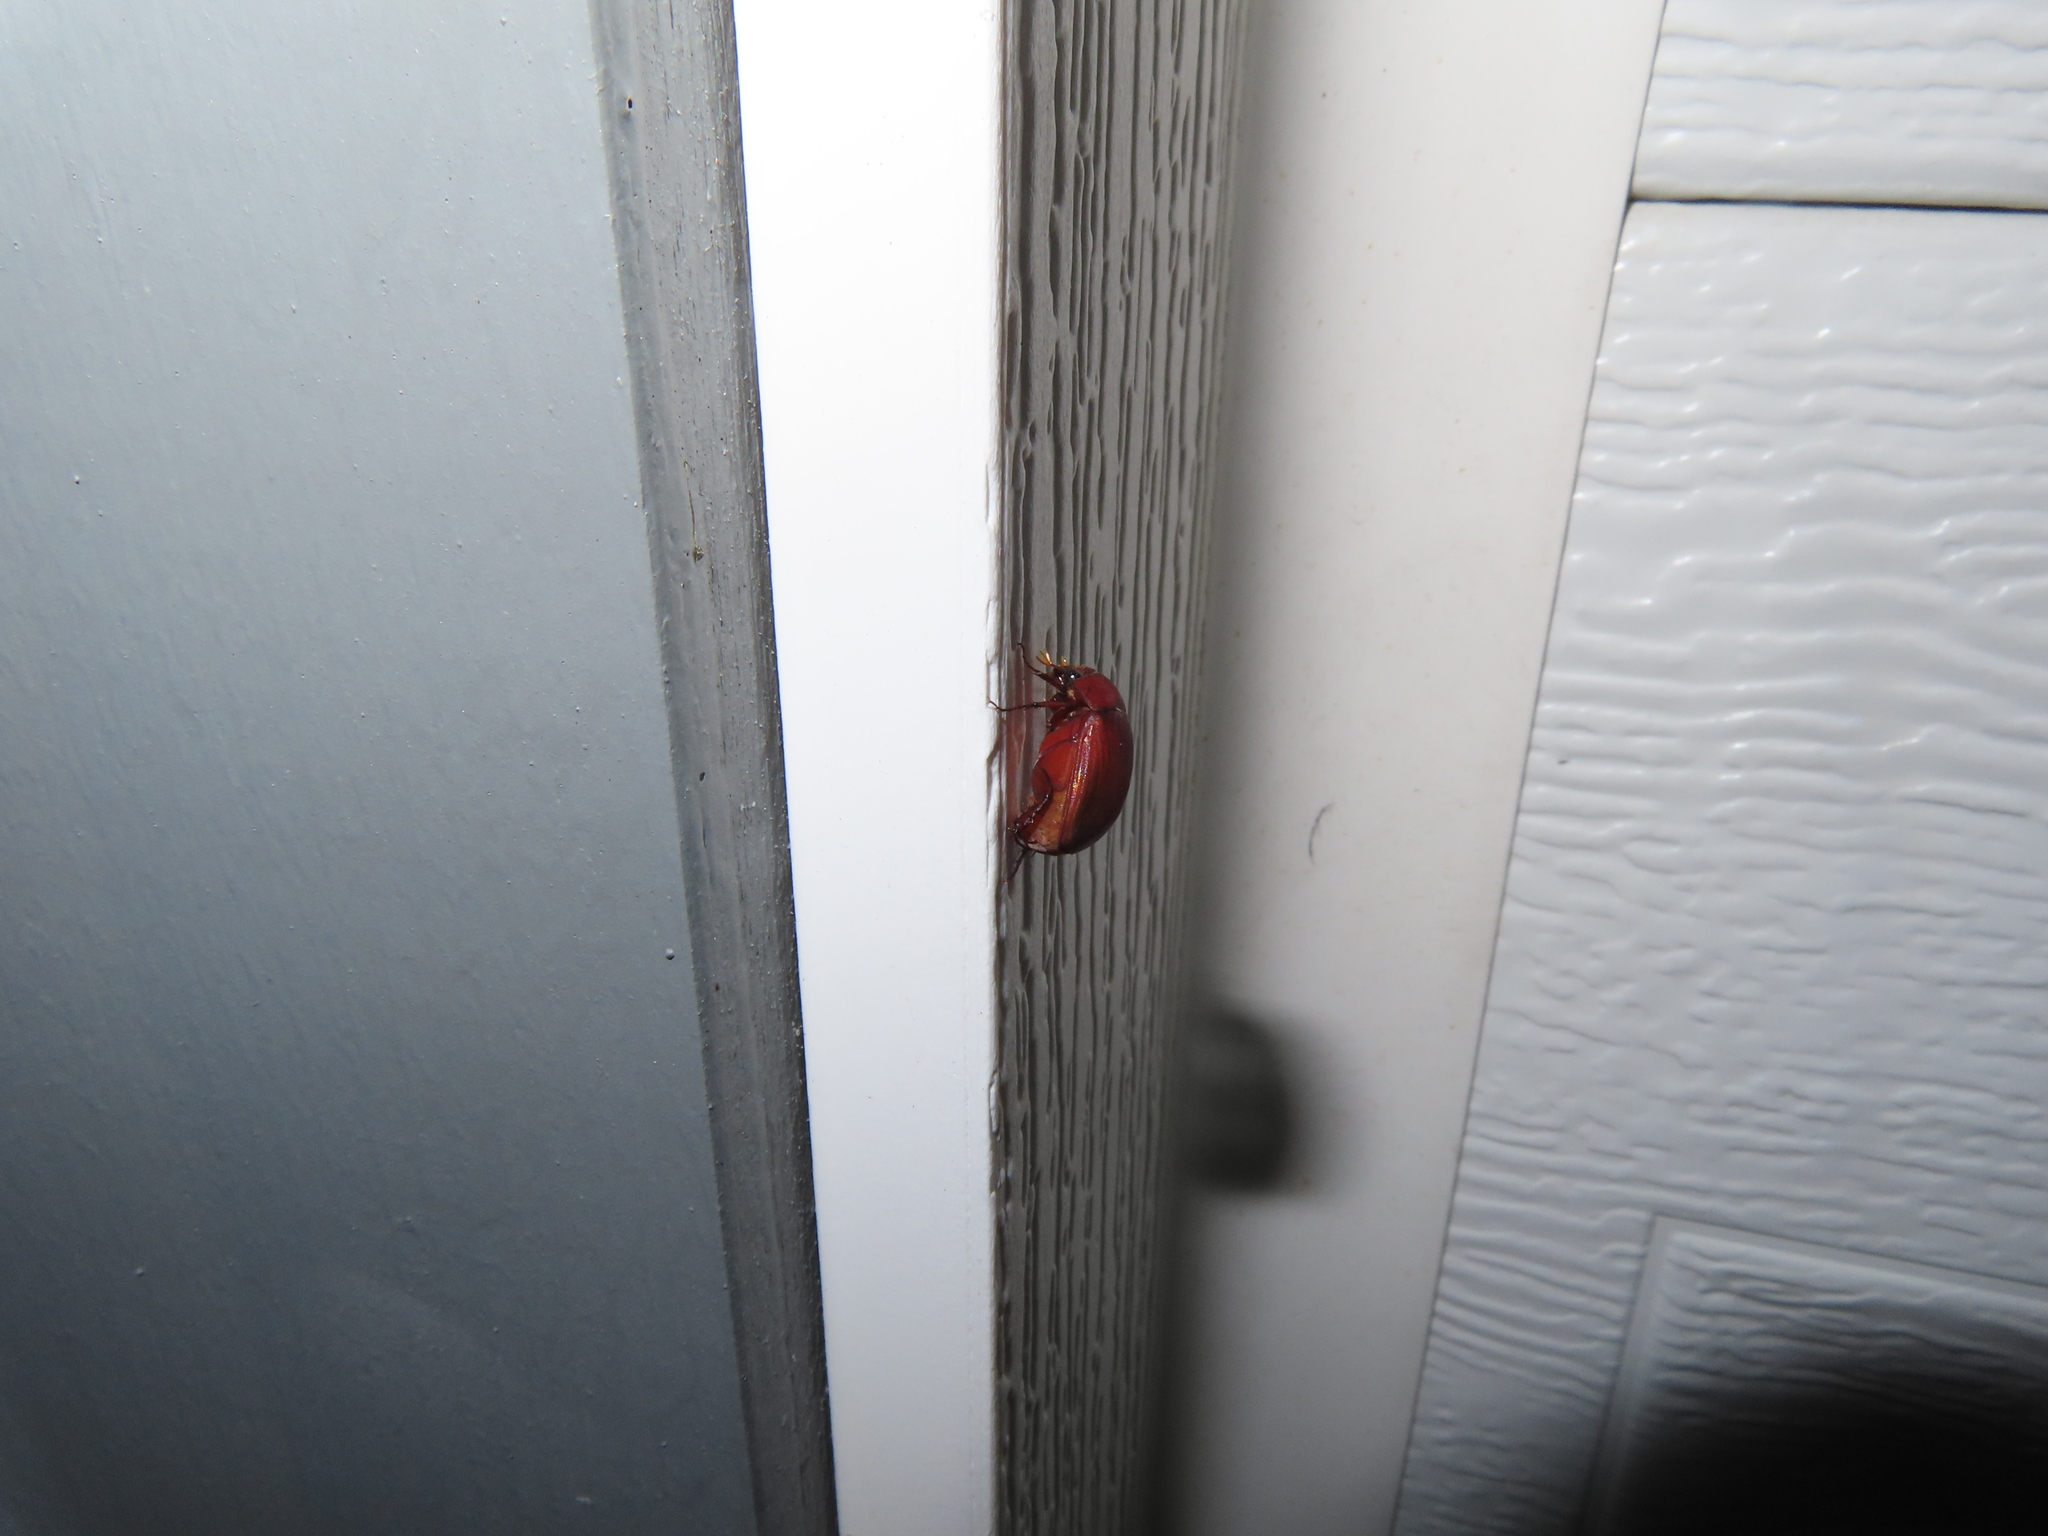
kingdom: Animalia
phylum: Arthropoda
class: Insecta
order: Coleoptera
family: Scarabaeidae
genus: Maladera
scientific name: Maladera formosae
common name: Asiatic garden beetle
